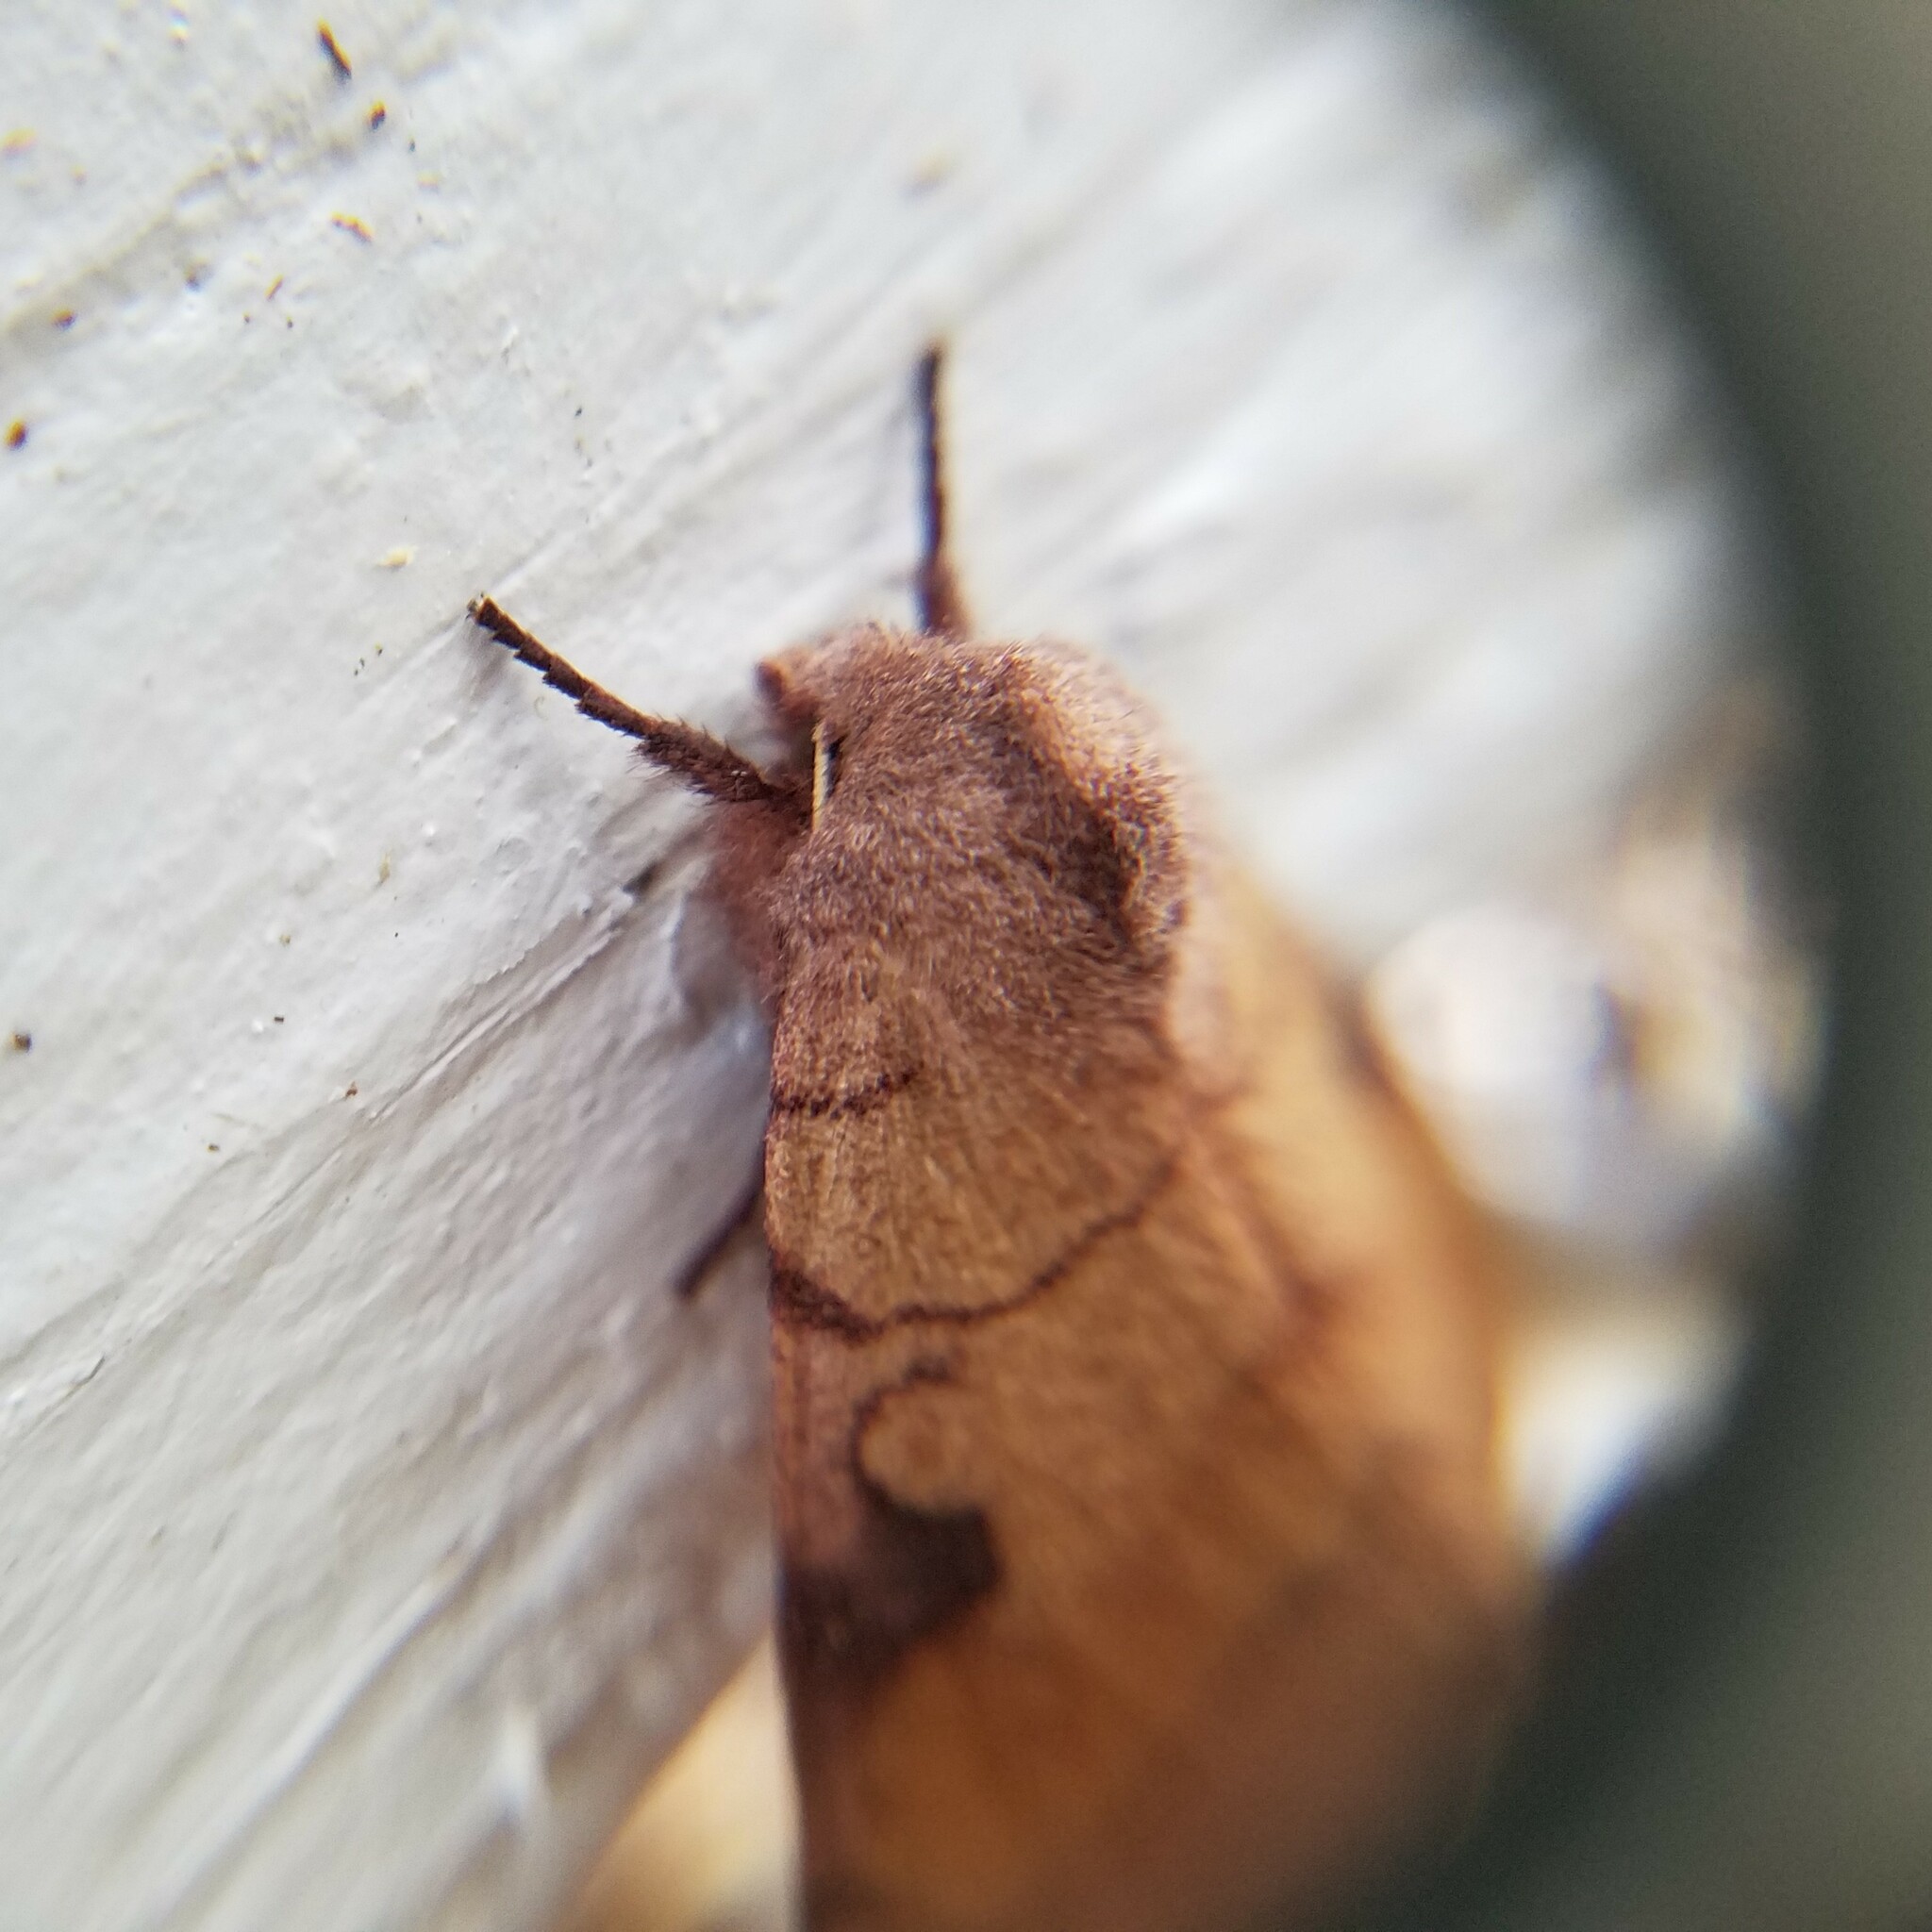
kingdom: Animalia
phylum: Arthropoda
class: Insecta
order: Lepidoptera
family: Noctuidae
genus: Choephora
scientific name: Choephora fungorum
